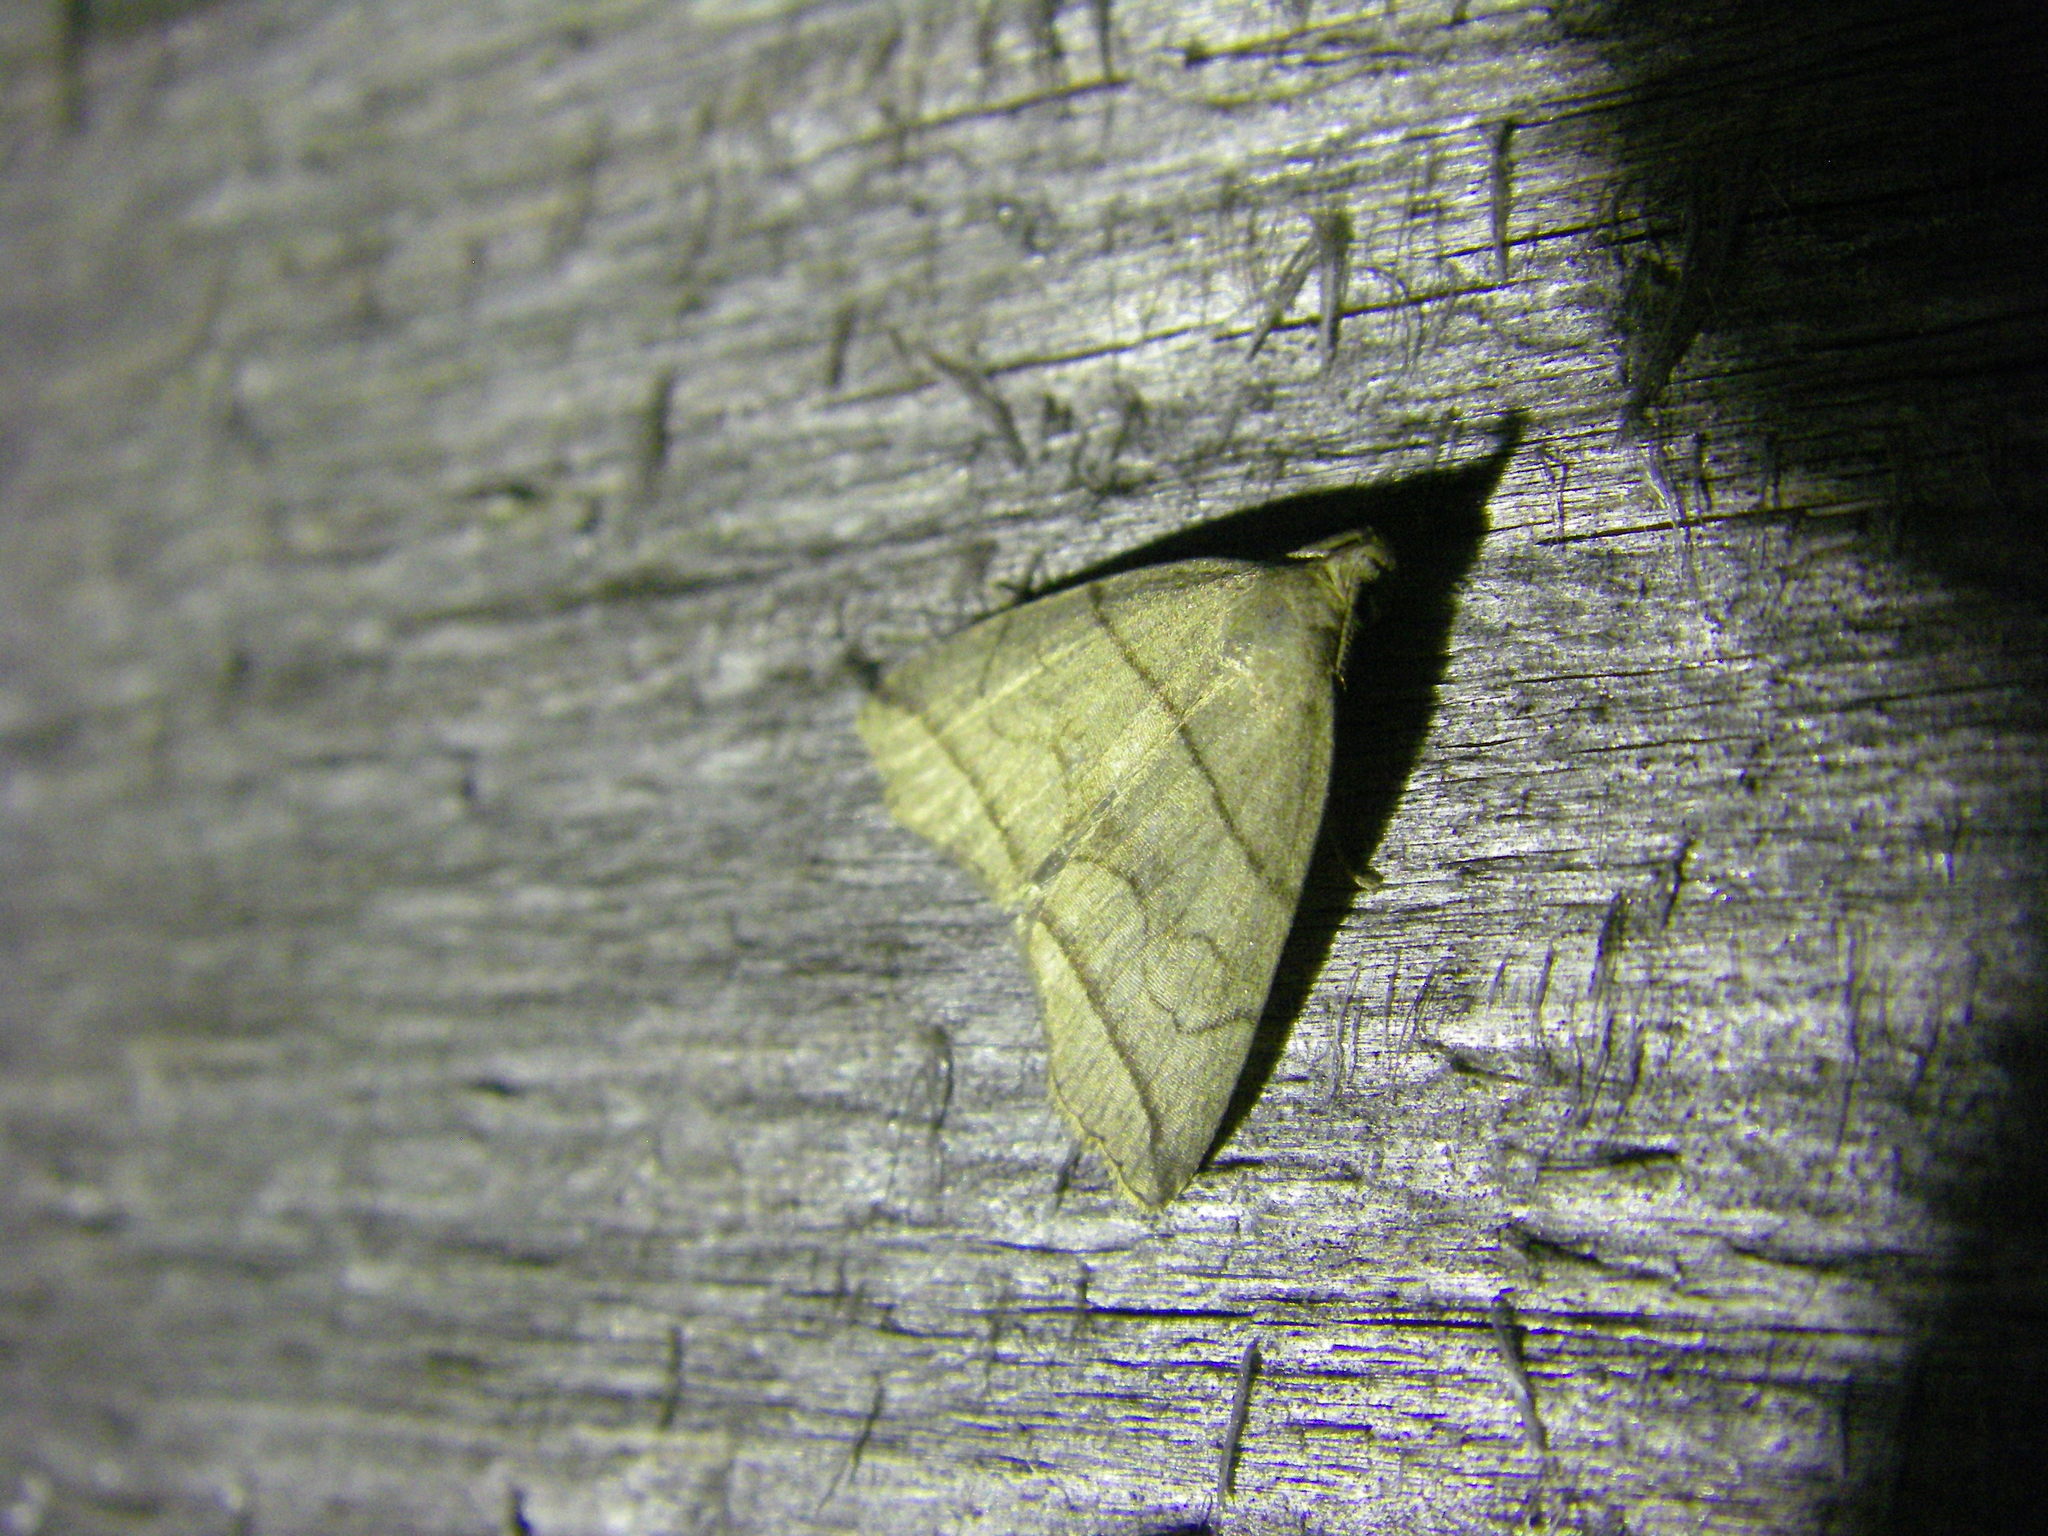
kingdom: Animalia
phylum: Arthropoda
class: Insecta
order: Lepidoptera
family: Erebidae
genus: Herminia
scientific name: Herminia grisealis
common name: Small fan-foot
